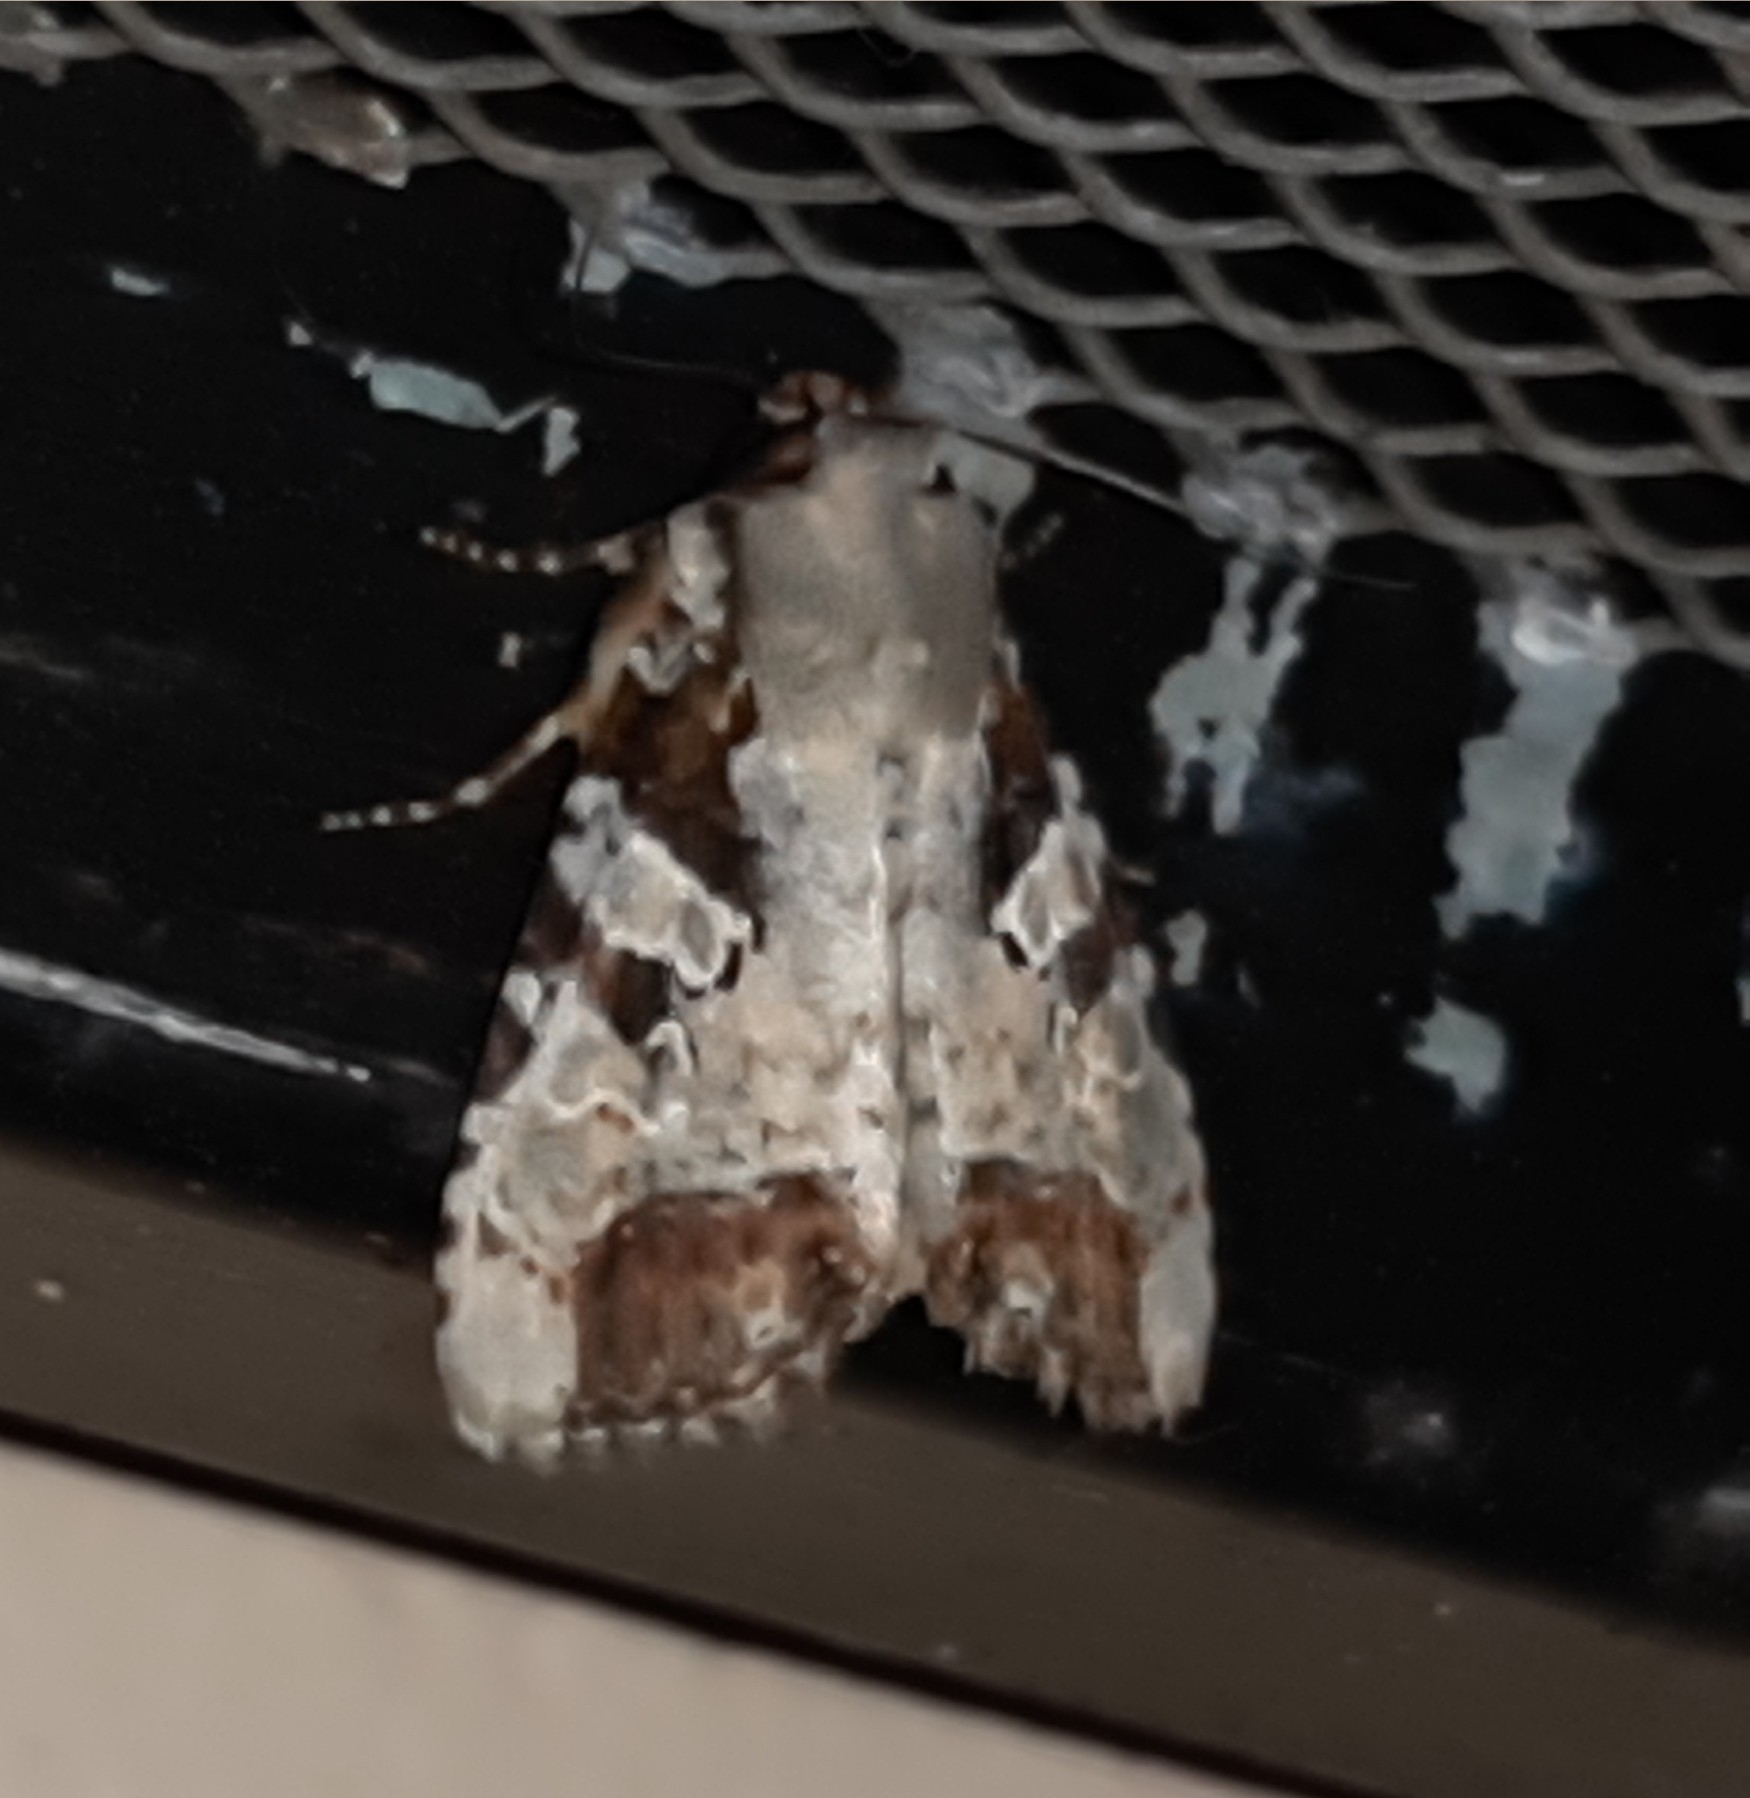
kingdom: Animalia
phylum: Arthropoda
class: Insecta
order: Lepidoptera
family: Noctuidae
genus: Condica
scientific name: Condica hippia
